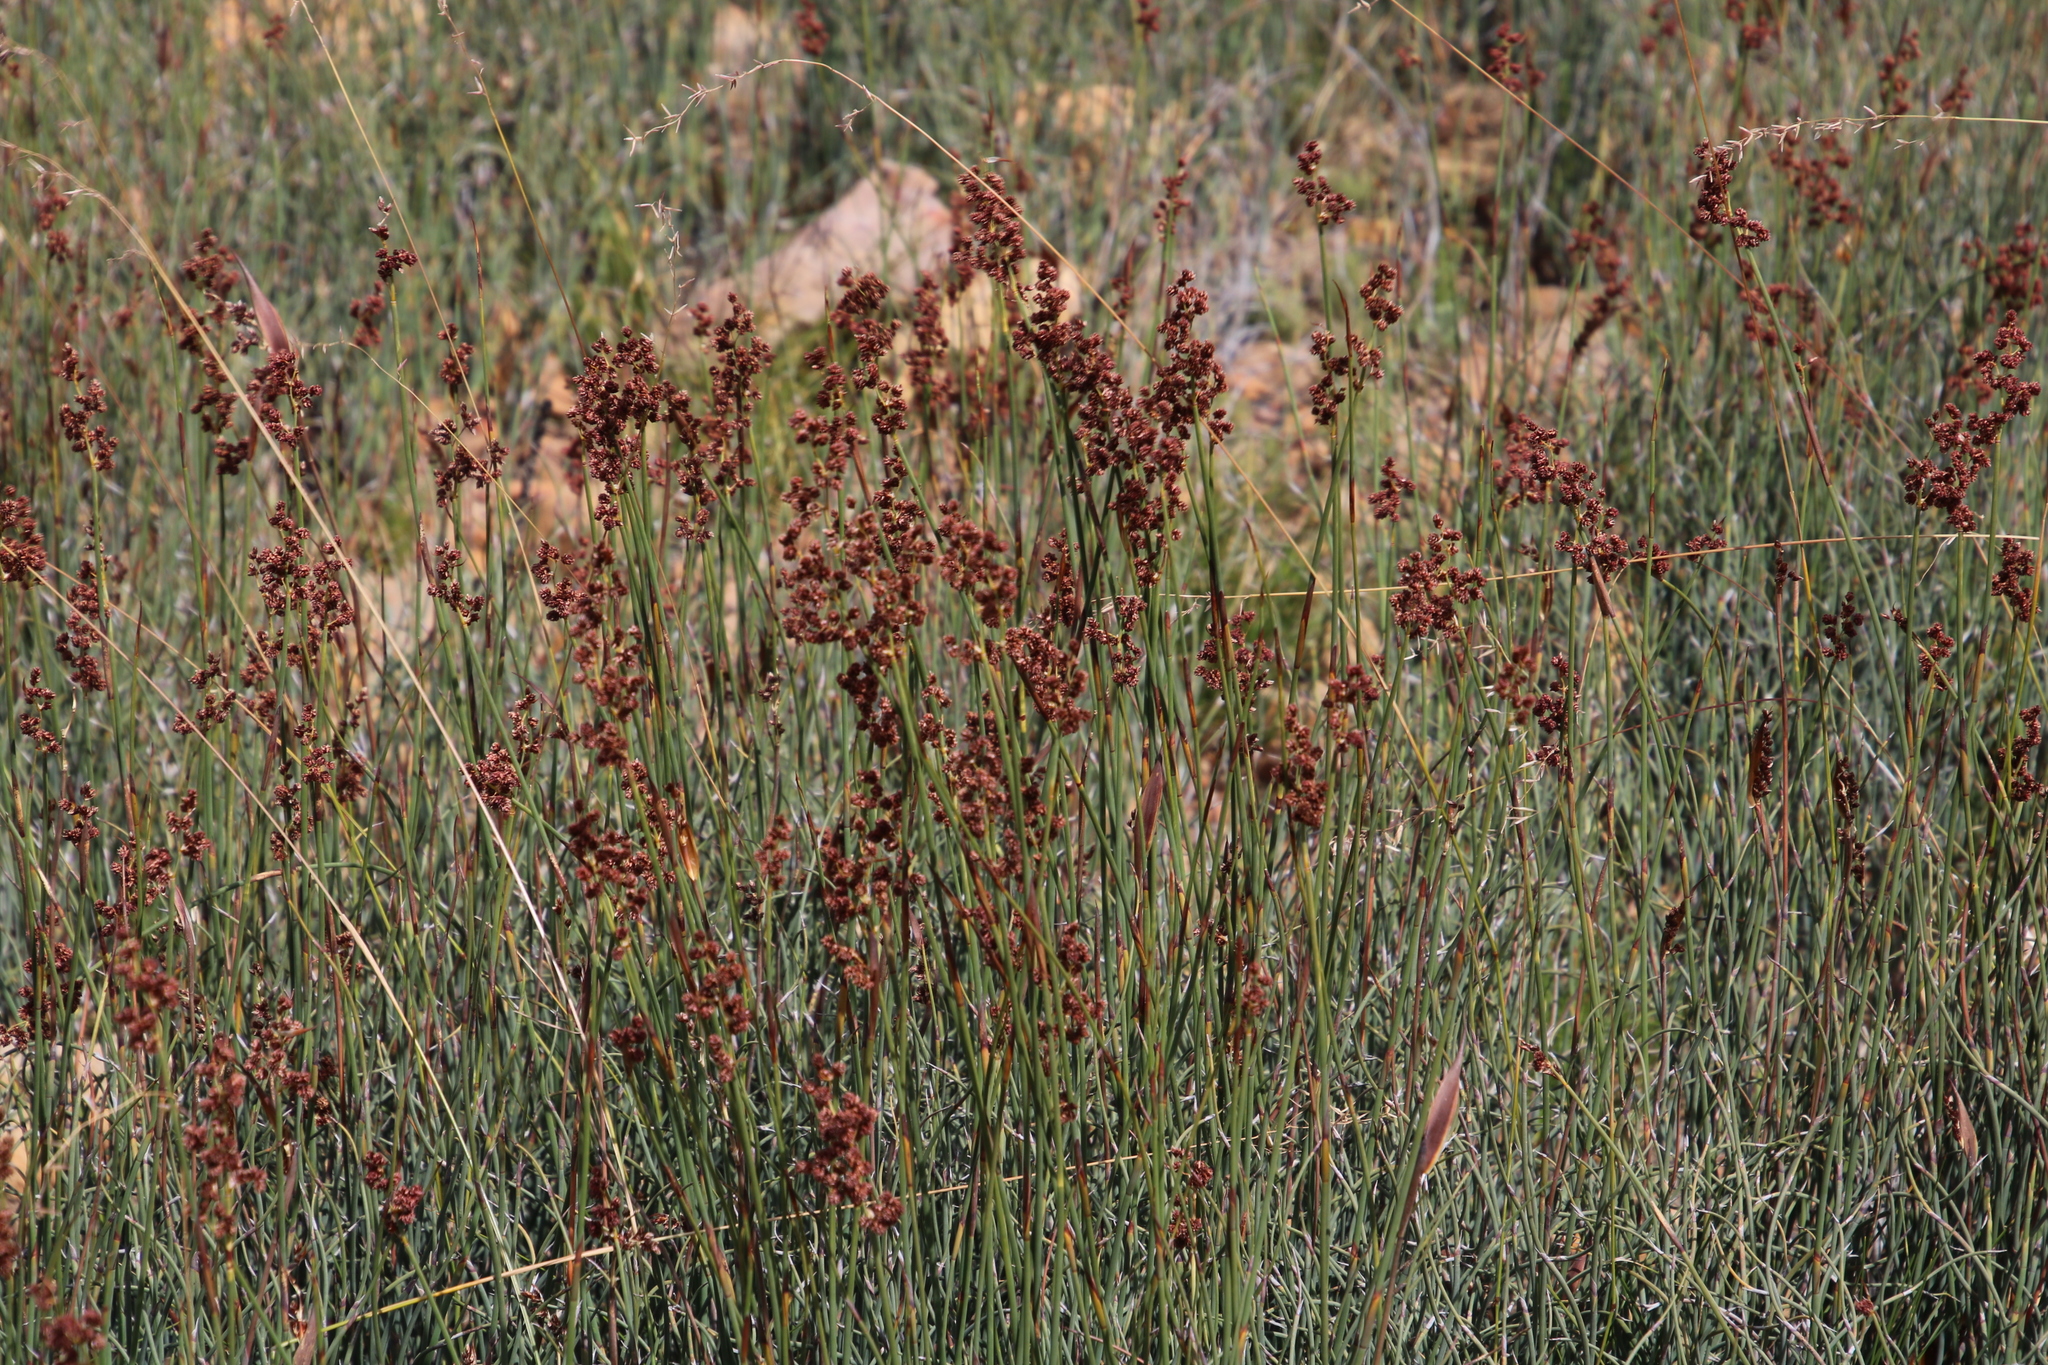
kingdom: Plantae
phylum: Tracheophyta
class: Liliopsida
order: Poales
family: Restionaceae
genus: Cannomois
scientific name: Cannomois parviflora
